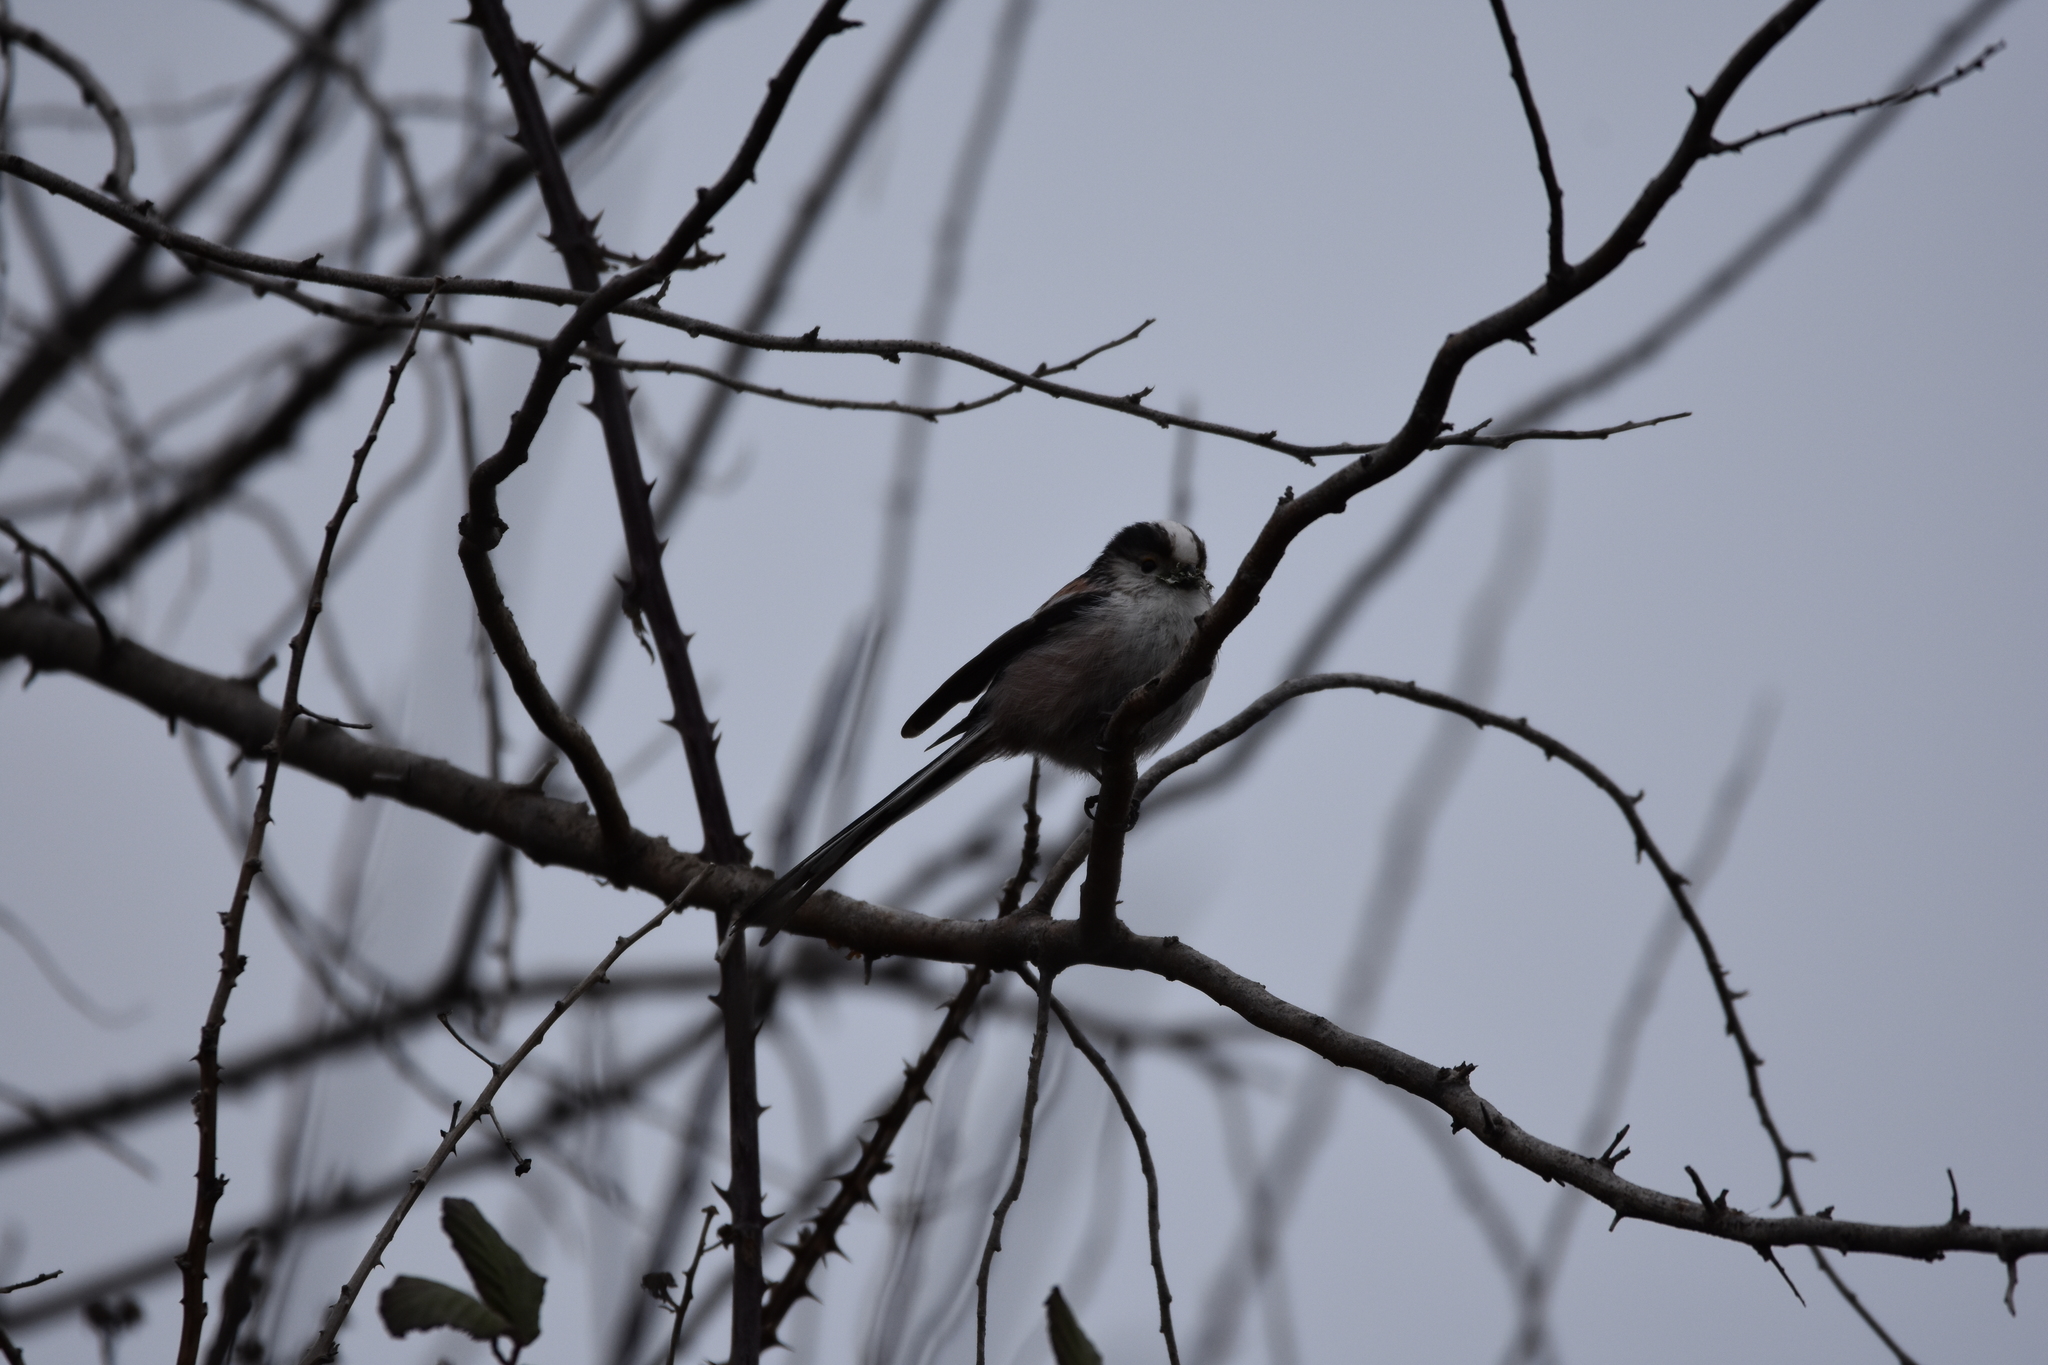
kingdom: Animalia
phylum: Chordata
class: Aves
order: Passeriformes
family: Aegithalidae
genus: Aegithalos
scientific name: Aegithalos caudatus
